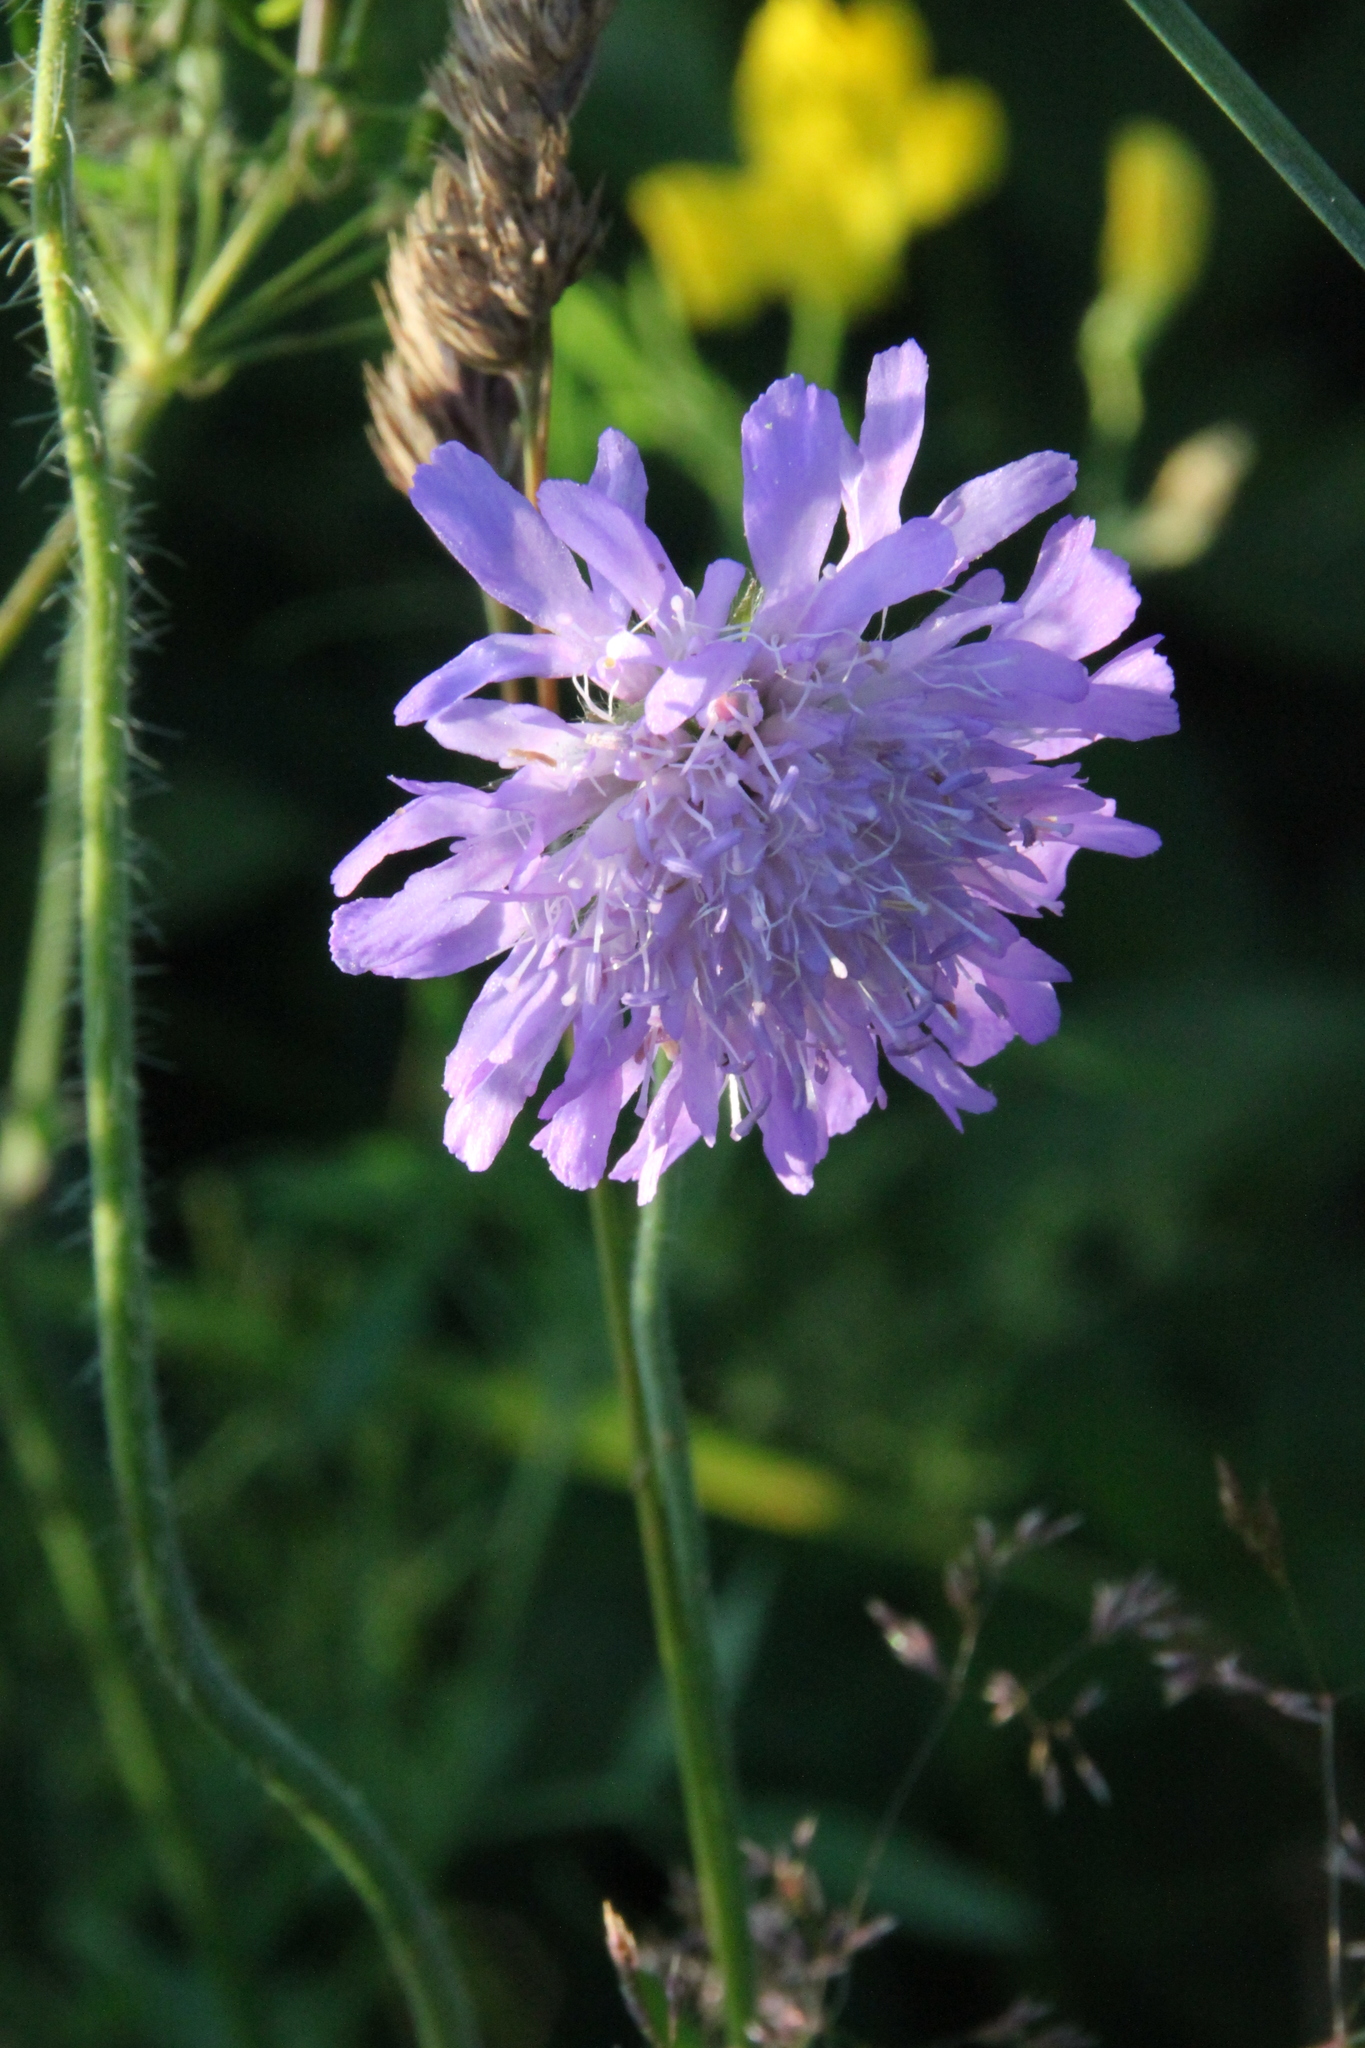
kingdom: Plantae
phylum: Tracheophyta
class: Magnoliopsida
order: Dipsacales
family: Caprifoliaceae
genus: Knautia
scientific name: Knautia arvensis
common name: Field scabiosa
